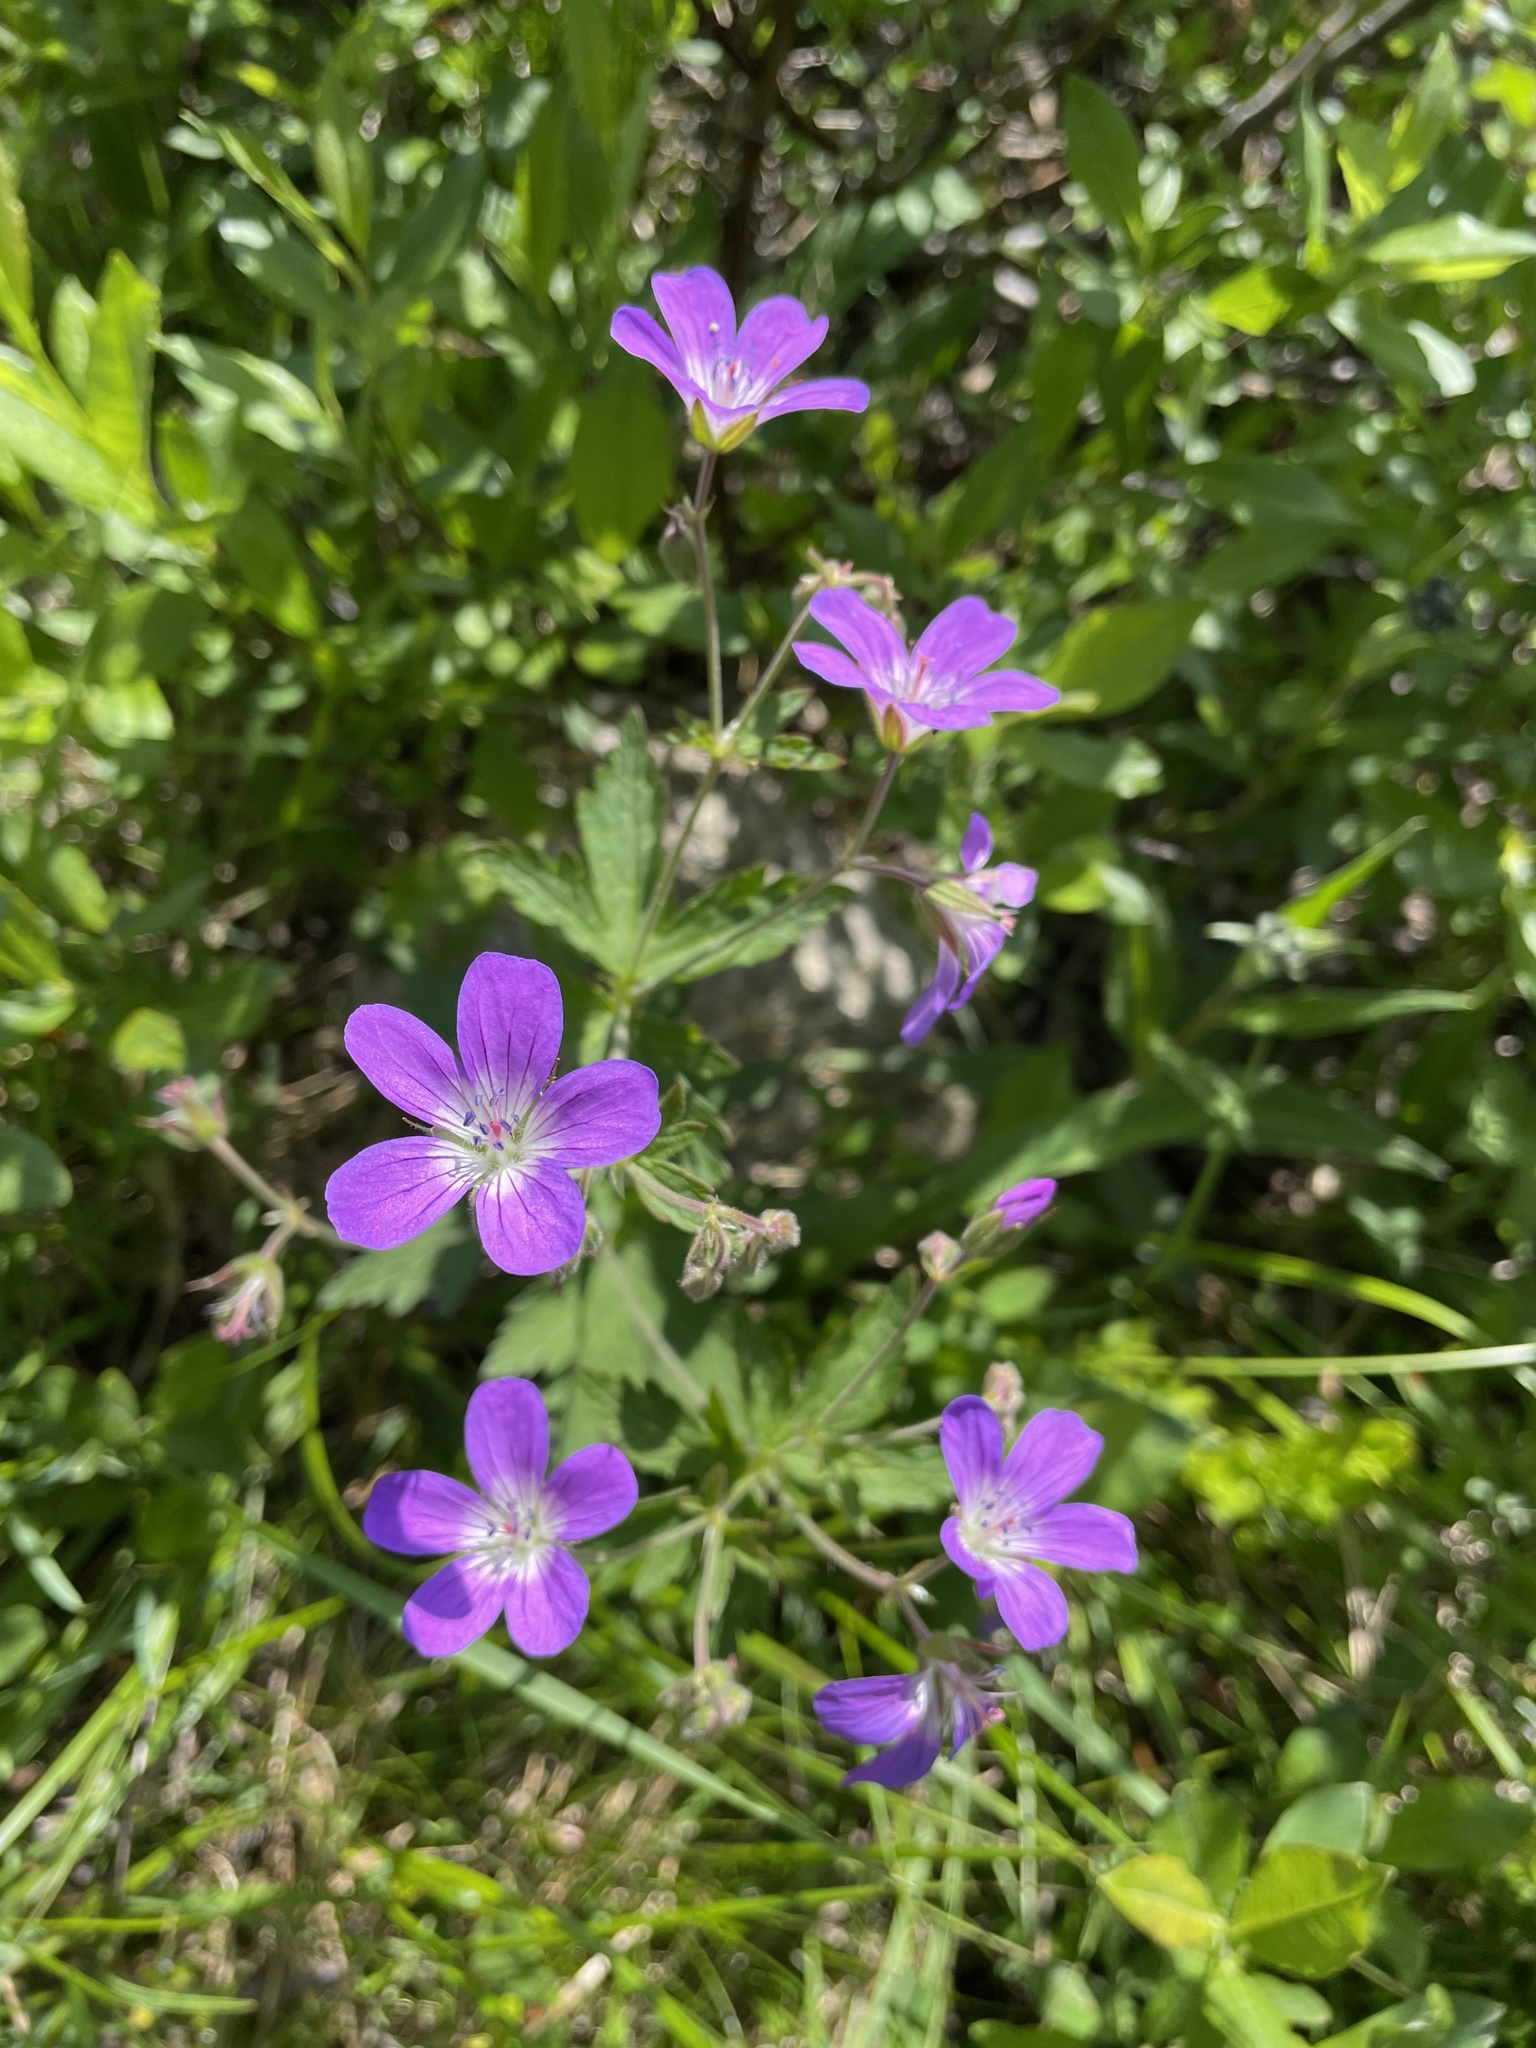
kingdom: Plantae
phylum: Tracheophyta
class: Magnoliopsida
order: Geraniales
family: Geraniaceae
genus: Geranium
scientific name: Geranium sylvaticum
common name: Wood crane's-bill
